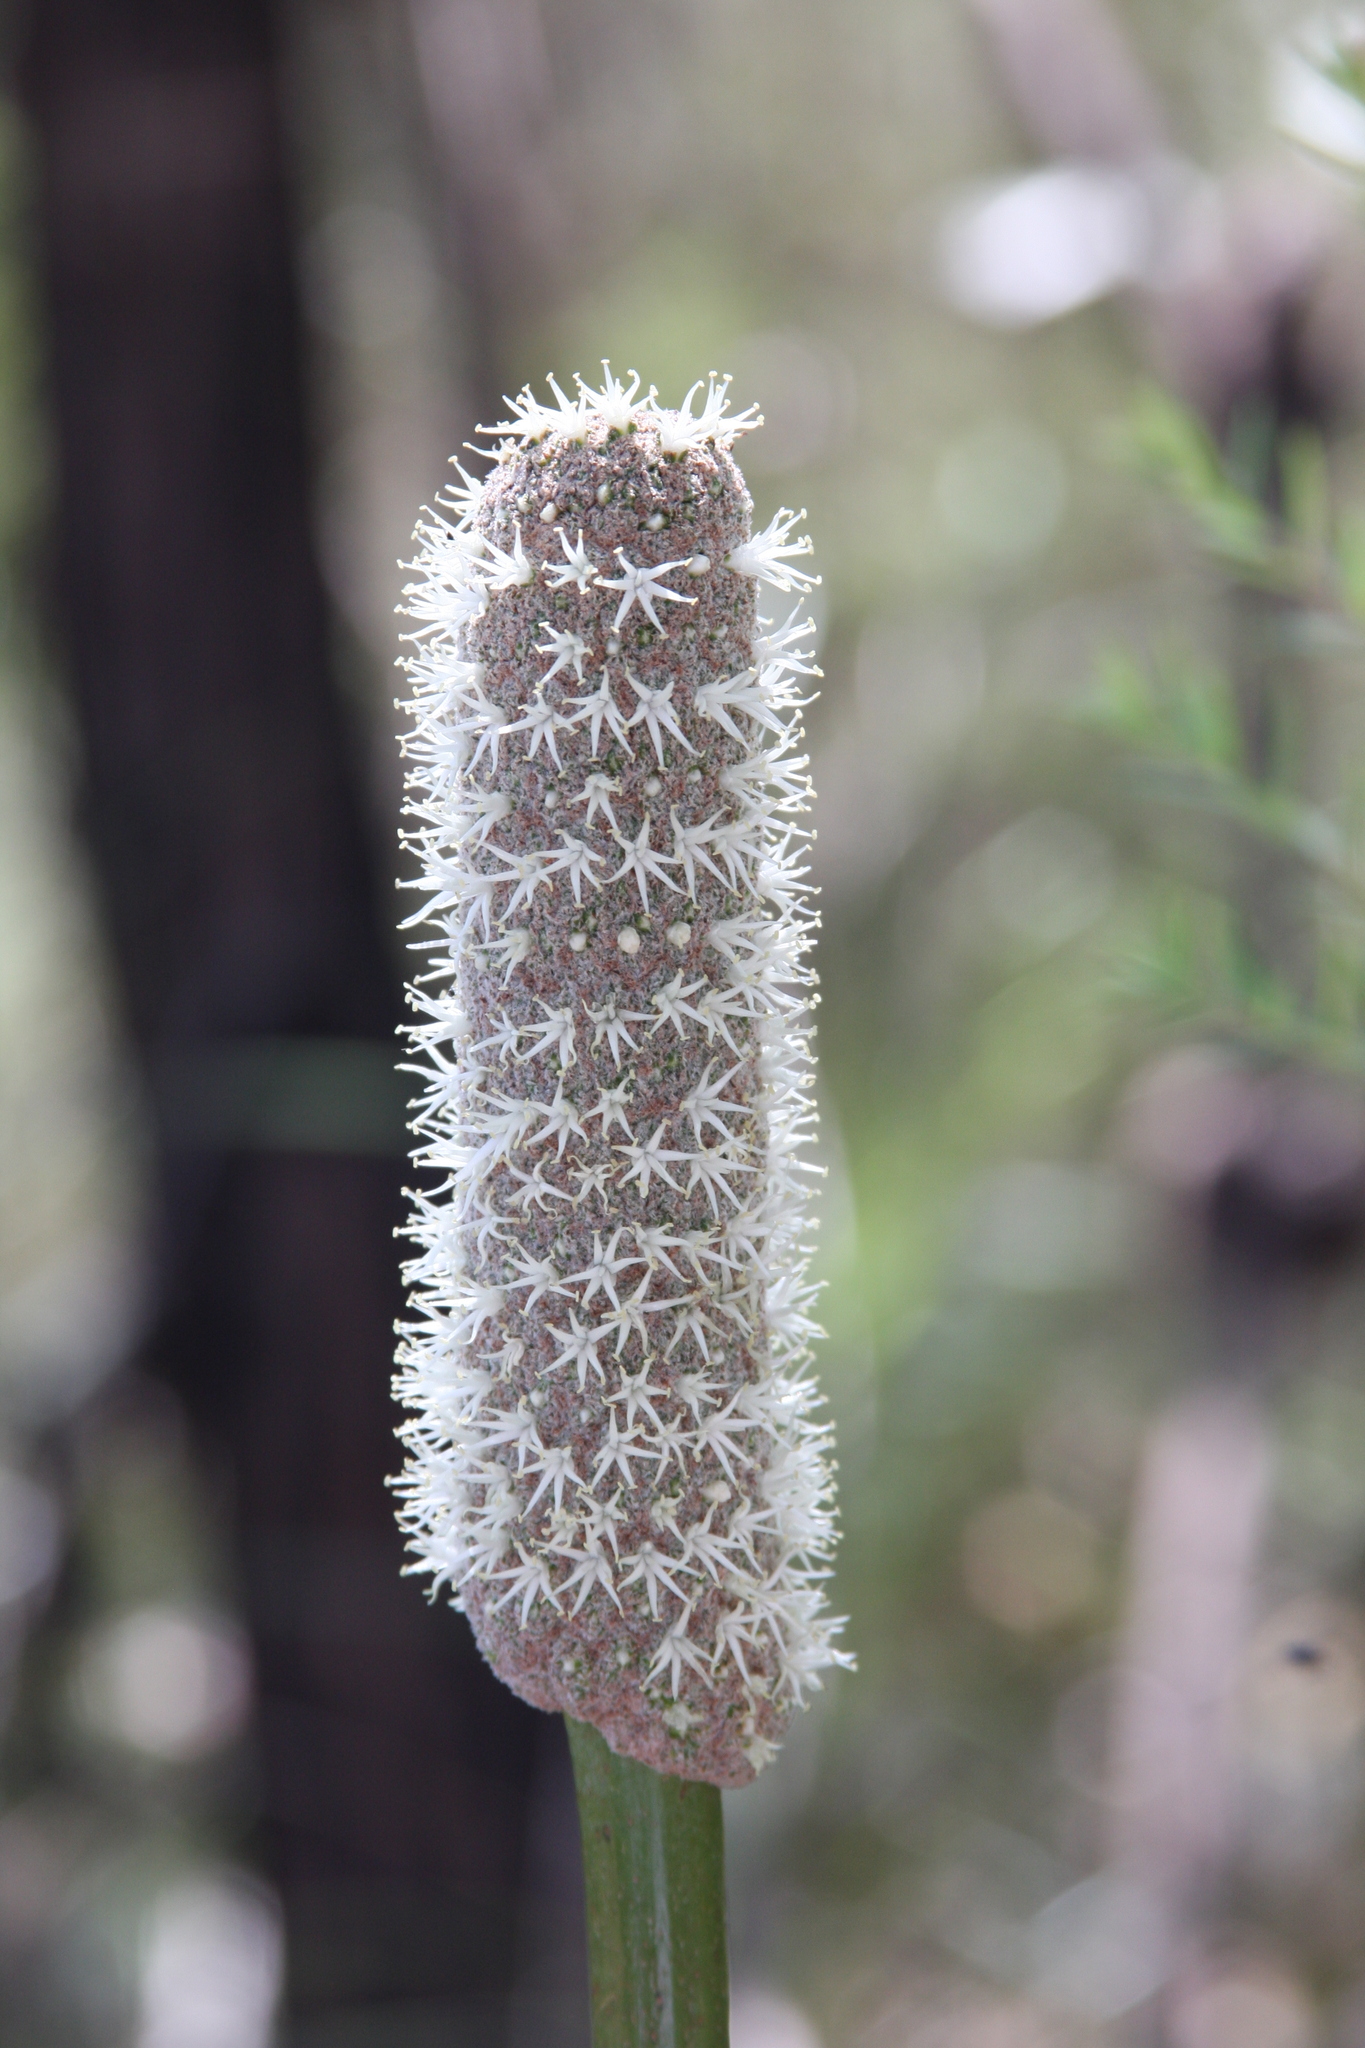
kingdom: Plantae
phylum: Tracheophyta
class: Liliopsida
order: Asparagales
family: Asphodelaceae
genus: Xanthorrhoea
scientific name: Xanthorrhoea fulva
